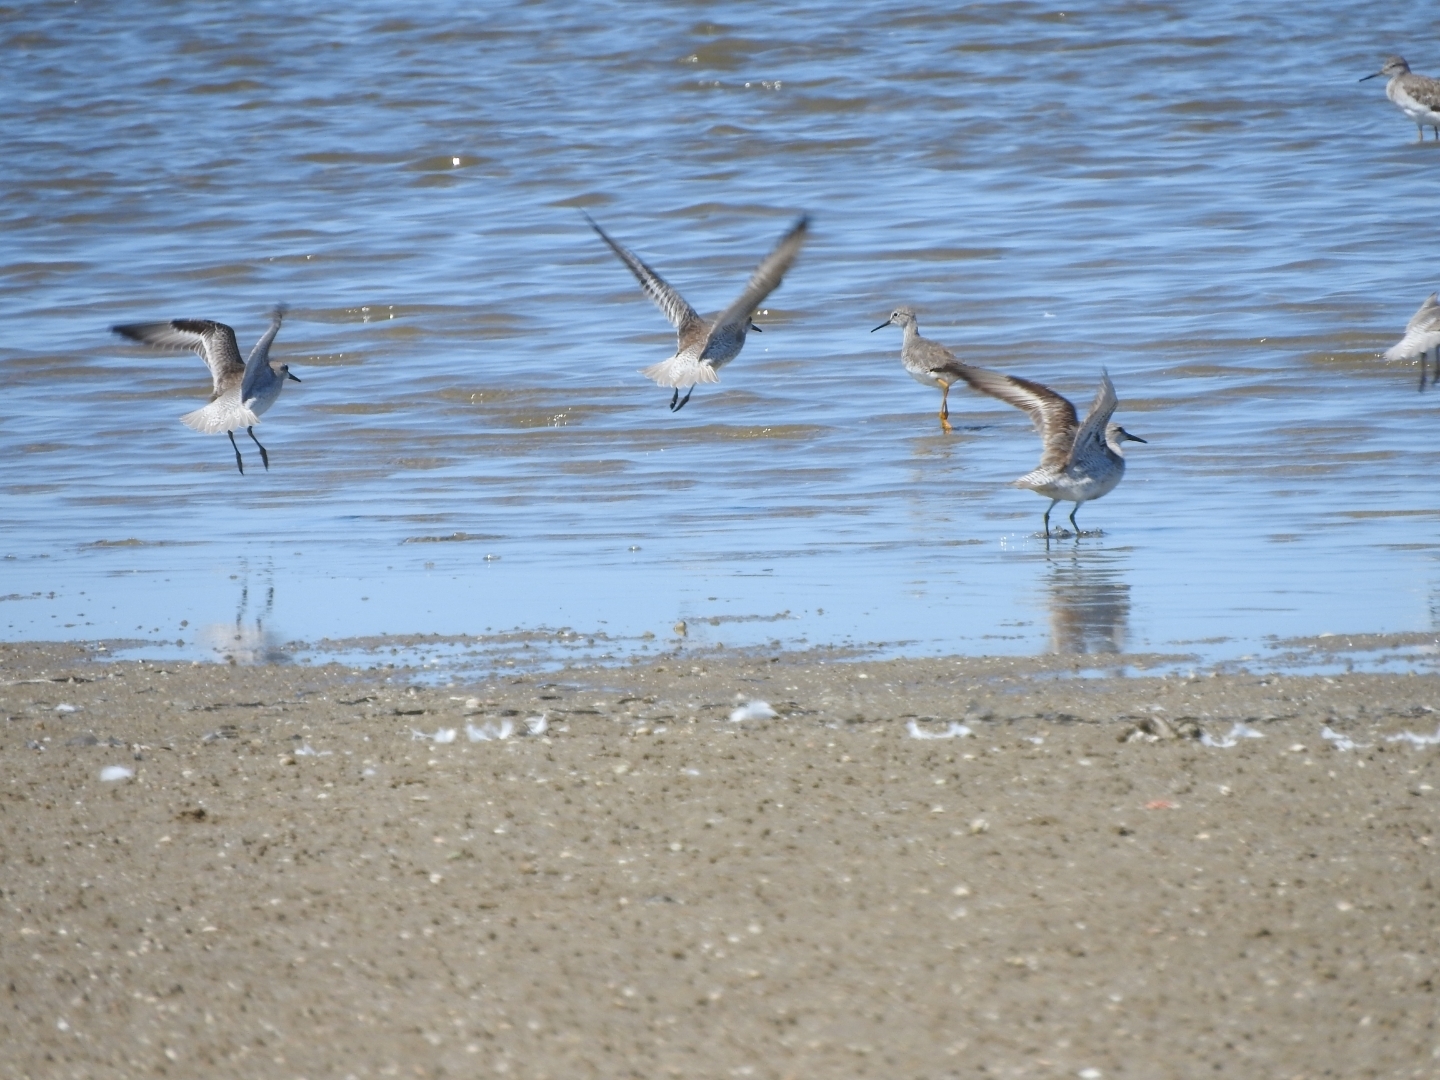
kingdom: Animalia
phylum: Chordata
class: Aves
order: Charadriiformes
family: Scolopacidae
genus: Calidris
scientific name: Calidris canutus
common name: Red knot
